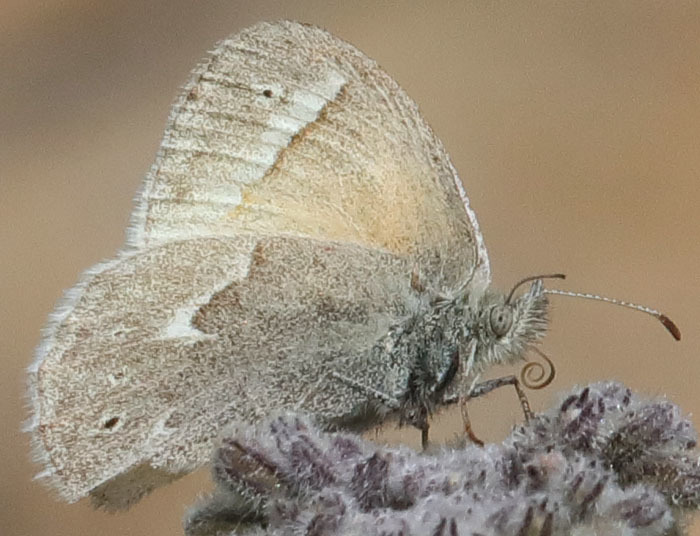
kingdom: Animalia
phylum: Arthropoda
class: Insecta
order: Lepidoptera
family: Nymphalidae
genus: Coenonympha
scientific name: Coenonympha california
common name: Common ringlet
